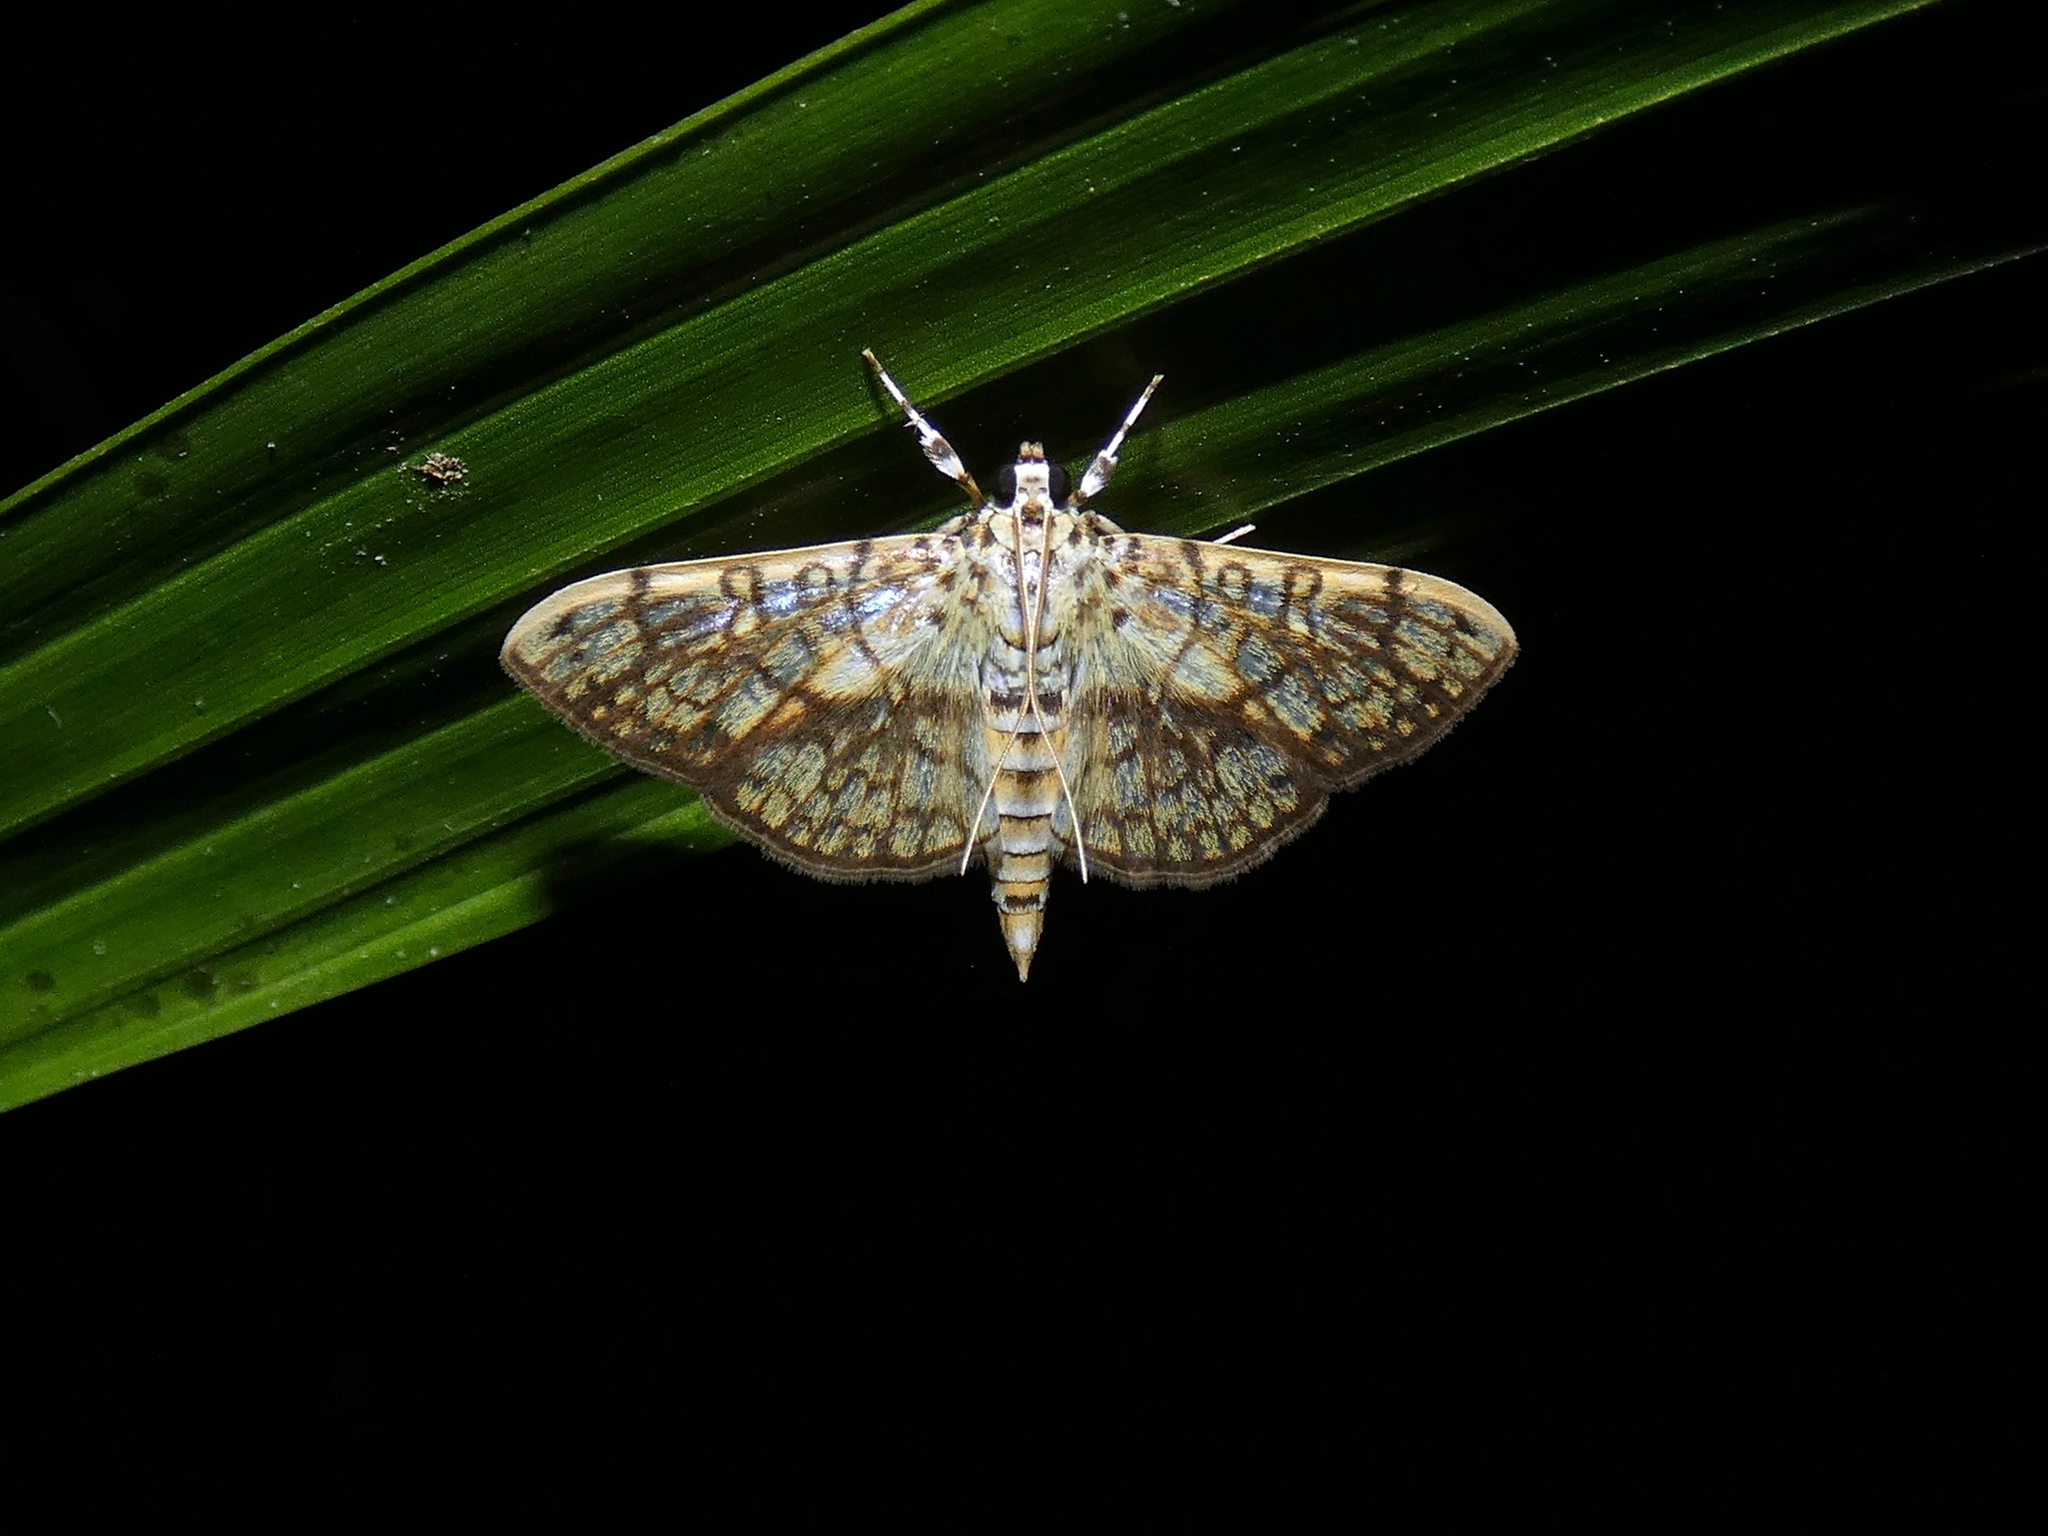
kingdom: Animalia
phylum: Arthropoda
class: Insecta
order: Lepidoptera
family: Crambidae
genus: Haritalodes
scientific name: Haritalodes derogata
